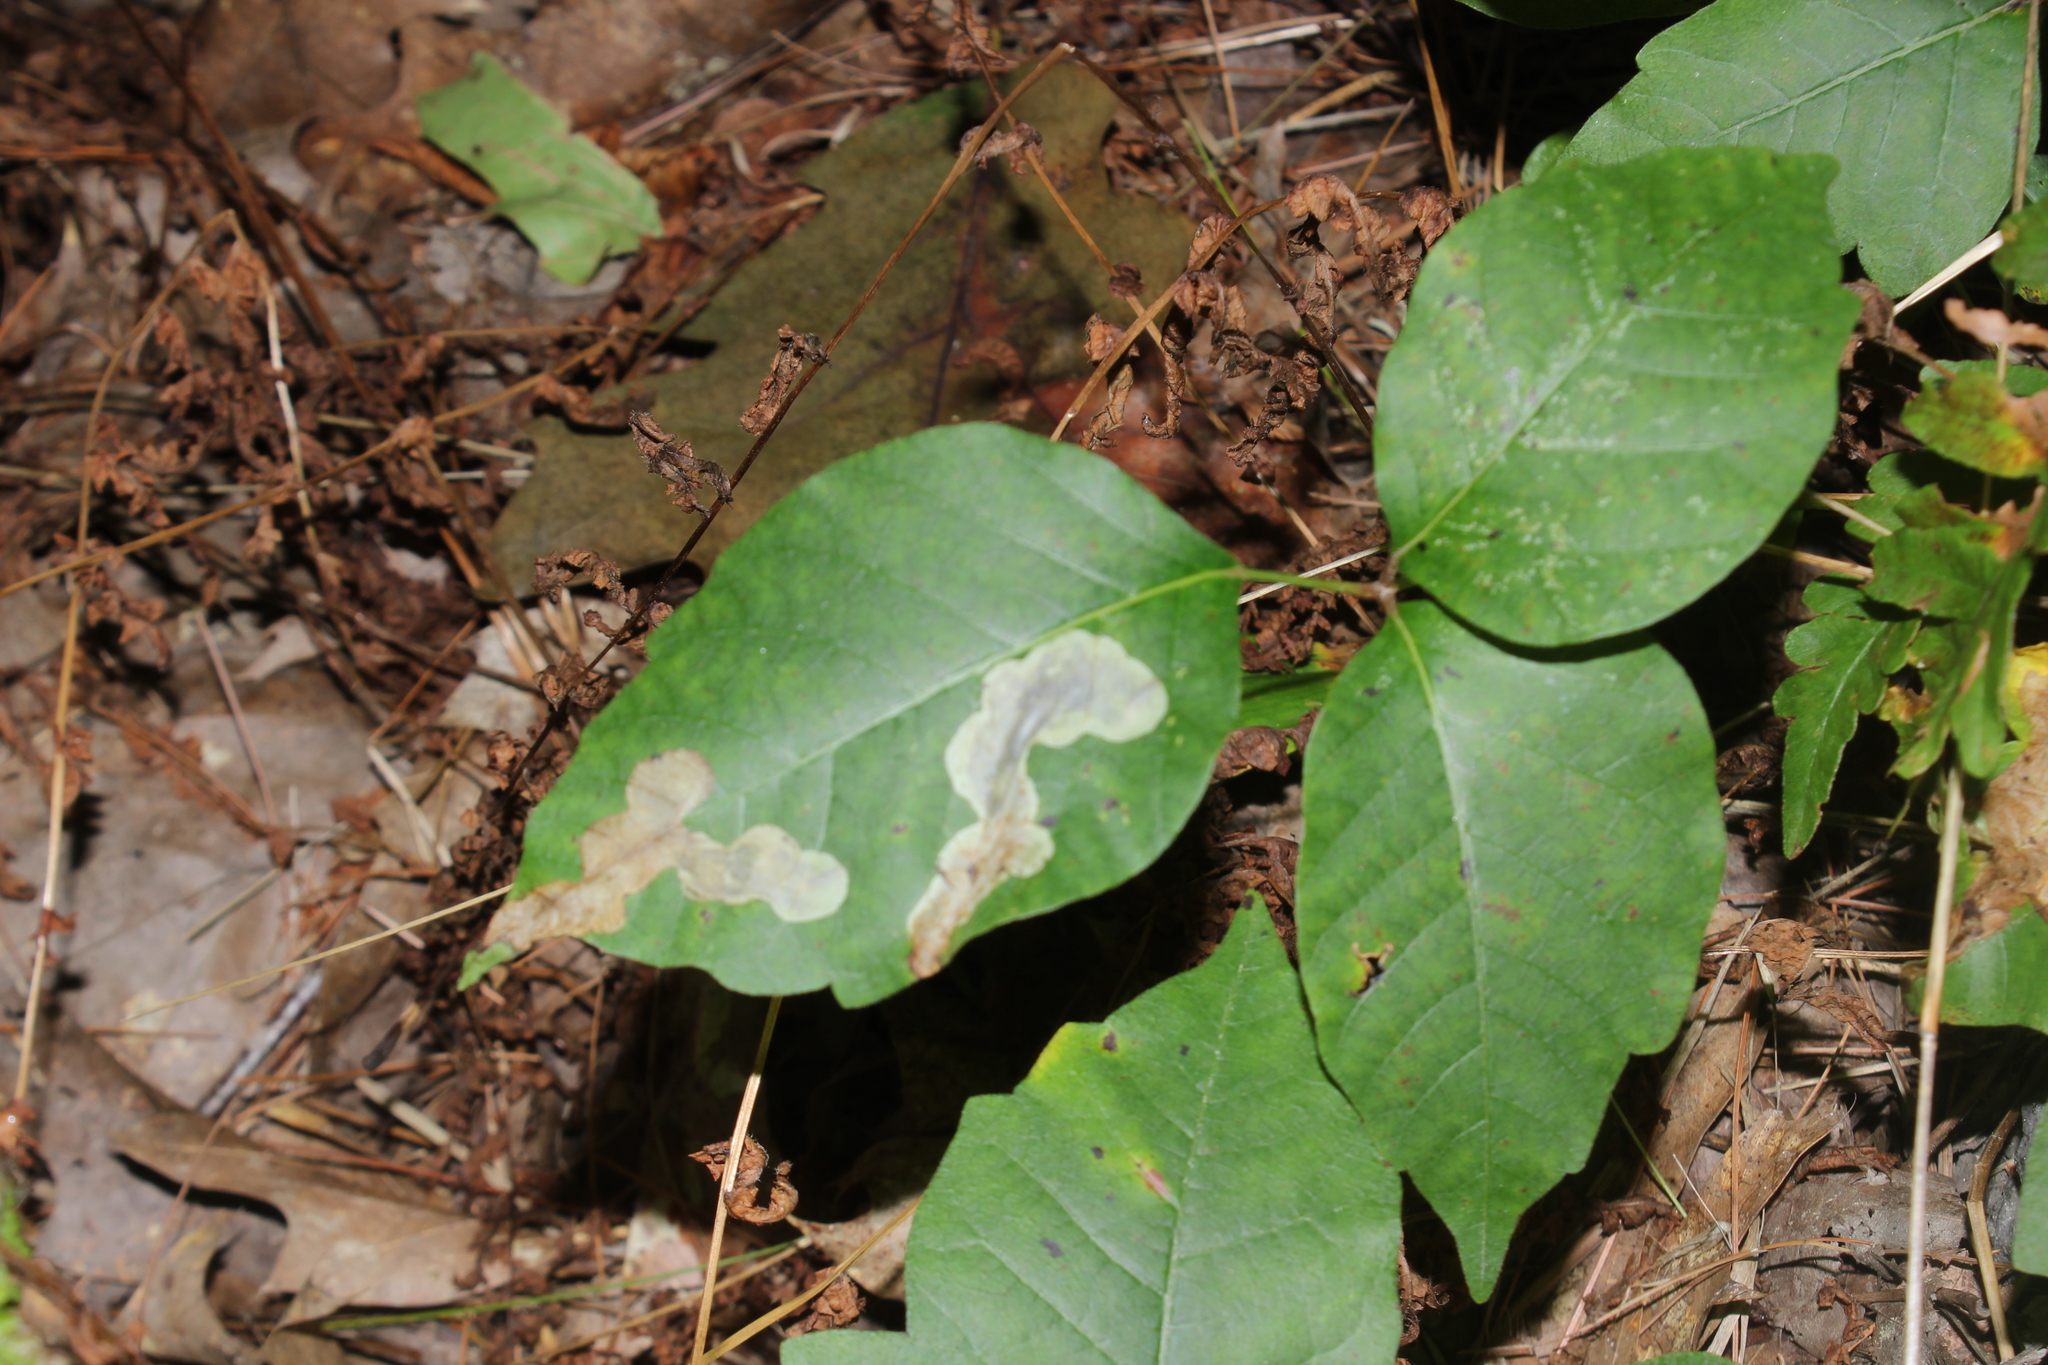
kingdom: Animalia
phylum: Arthropoda
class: Insecta
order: Lepidoptera
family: Gracillariidae
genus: Cameraria
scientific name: Cameraria guttifinitella
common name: Poison ivy leaf-miner moth
